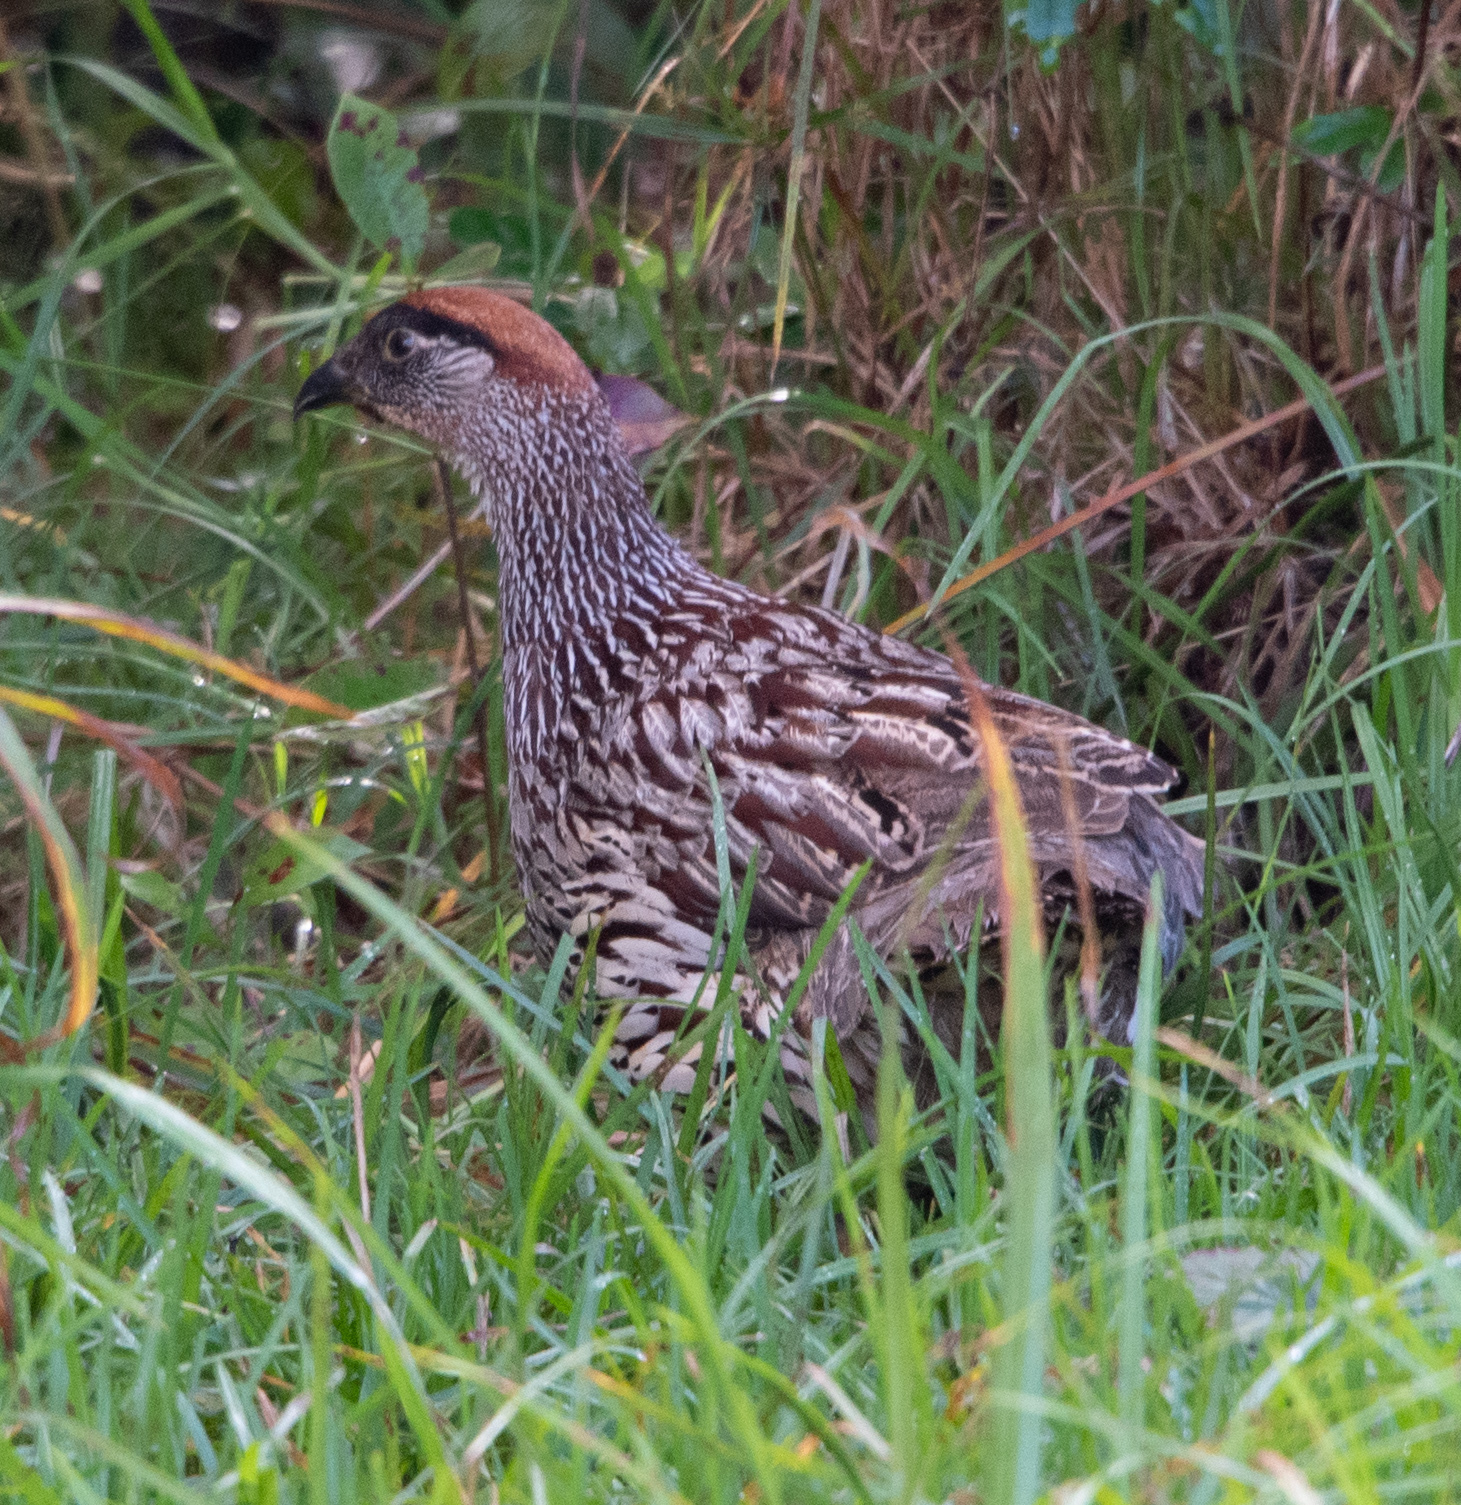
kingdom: Animalia
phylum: Chordata
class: Aves
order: Galliformes
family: Phasianidae
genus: Pternistis
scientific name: Pternistis erckelii
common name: Erckel's francolin
